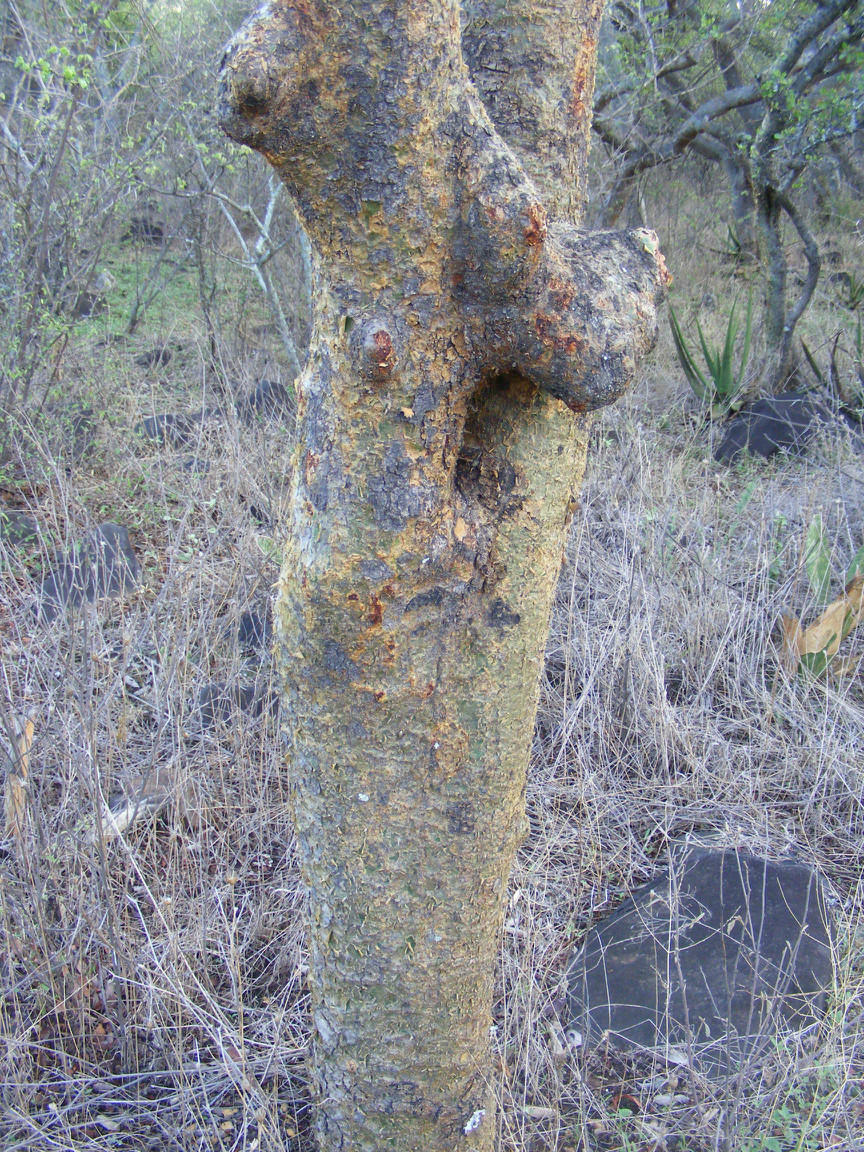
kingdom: Plantae
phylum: Tracheophyta
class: Magnoliopsida
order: Sapindales
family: Burseraceae
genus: Commiphora
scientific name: Commiphora glandulosa
